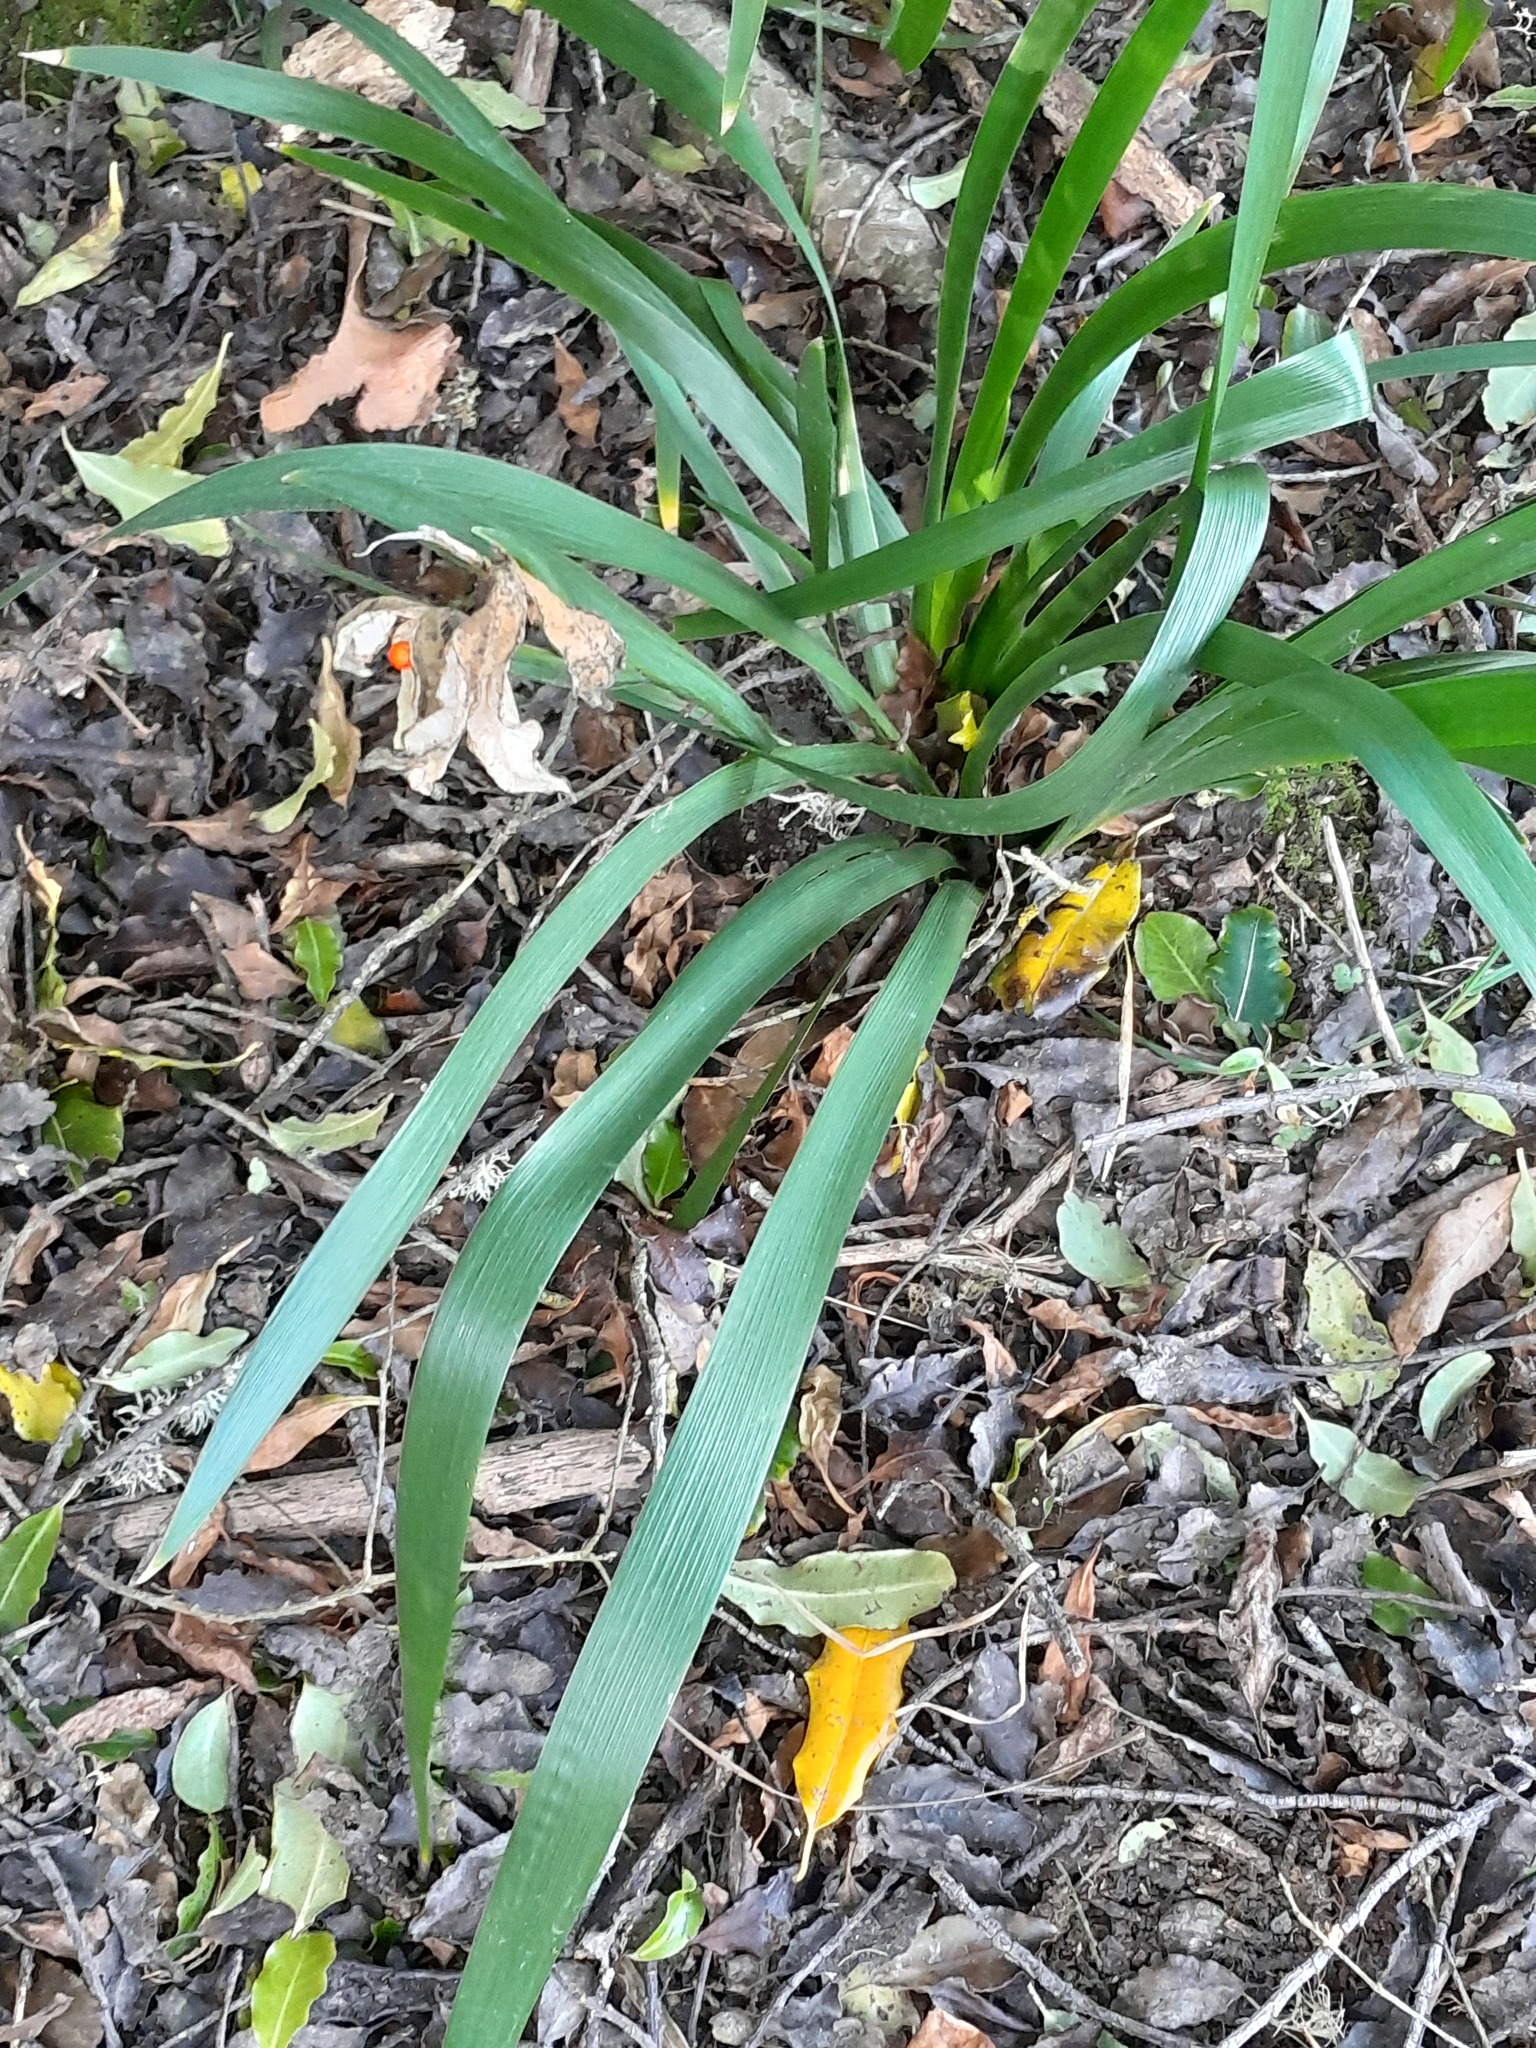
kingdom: Plantae
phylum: Tracheophyta
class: Liliopsida
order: Asparagales
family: Iridaceae
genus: Iris
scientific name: Iris foetidissima
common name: Stinking iris
